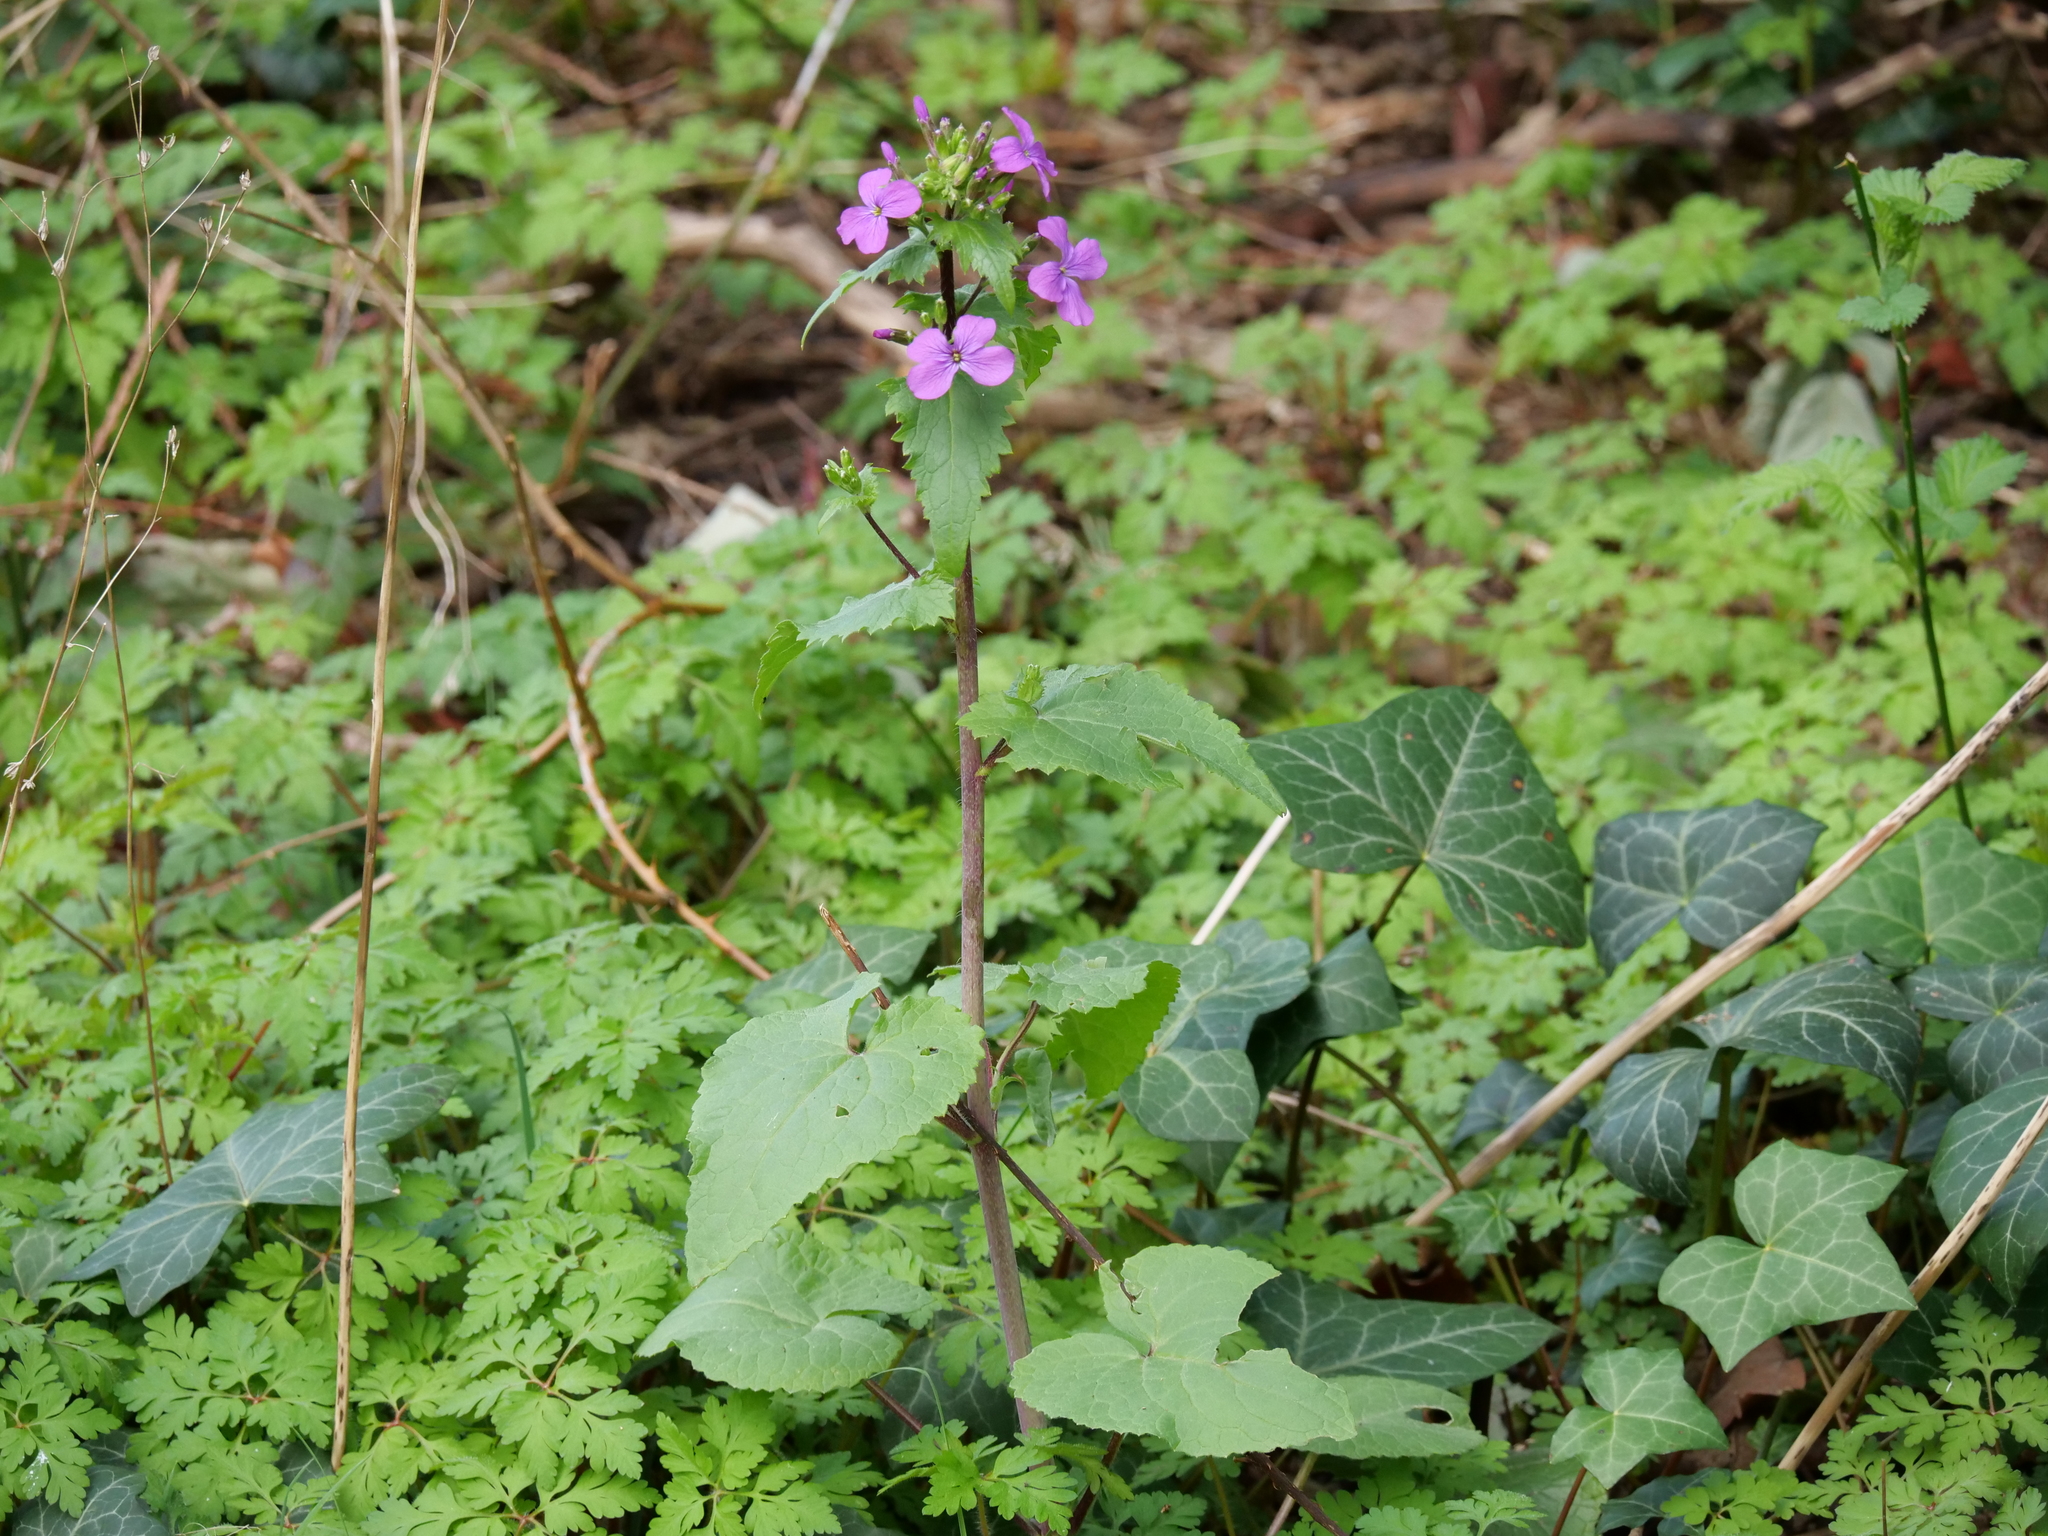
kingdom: Plantae
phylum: Tracheophyta
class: Magnoliopsida
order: Brassicales
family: Brassicaceae
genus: Lunaria
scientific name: Lunaria annua
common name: Honesty
